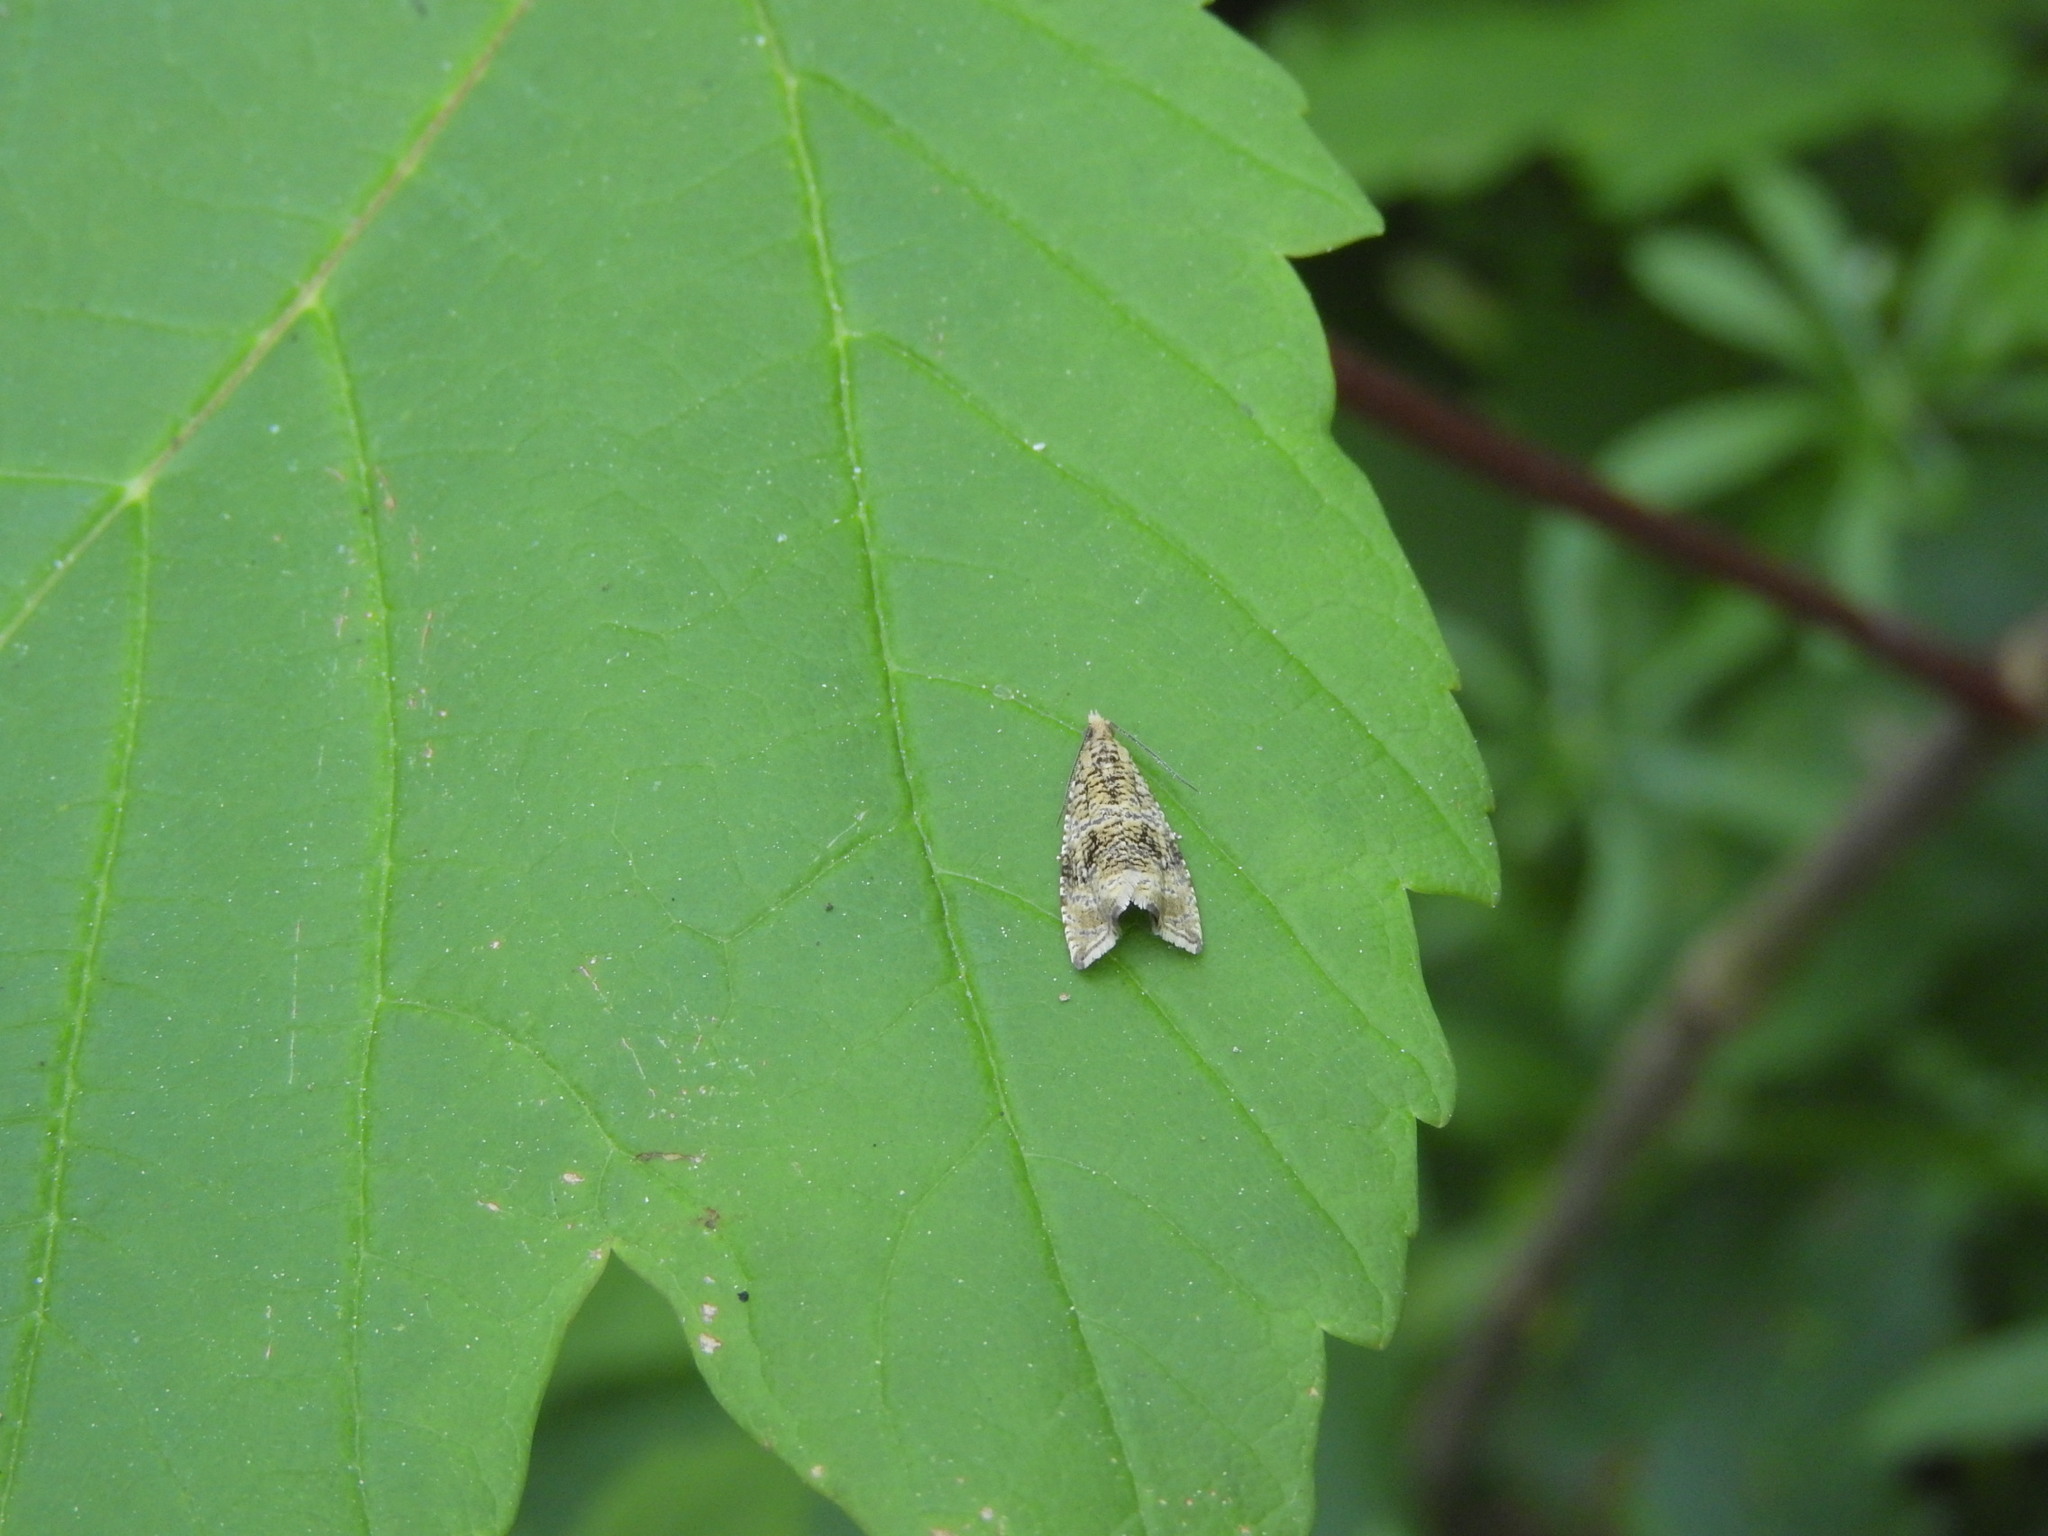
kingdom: Animalia
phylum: Arthropoda
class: Insecta
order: Lepidoptera
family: Tortricidae
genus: Syricoris
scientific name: Syricoris lacunana
